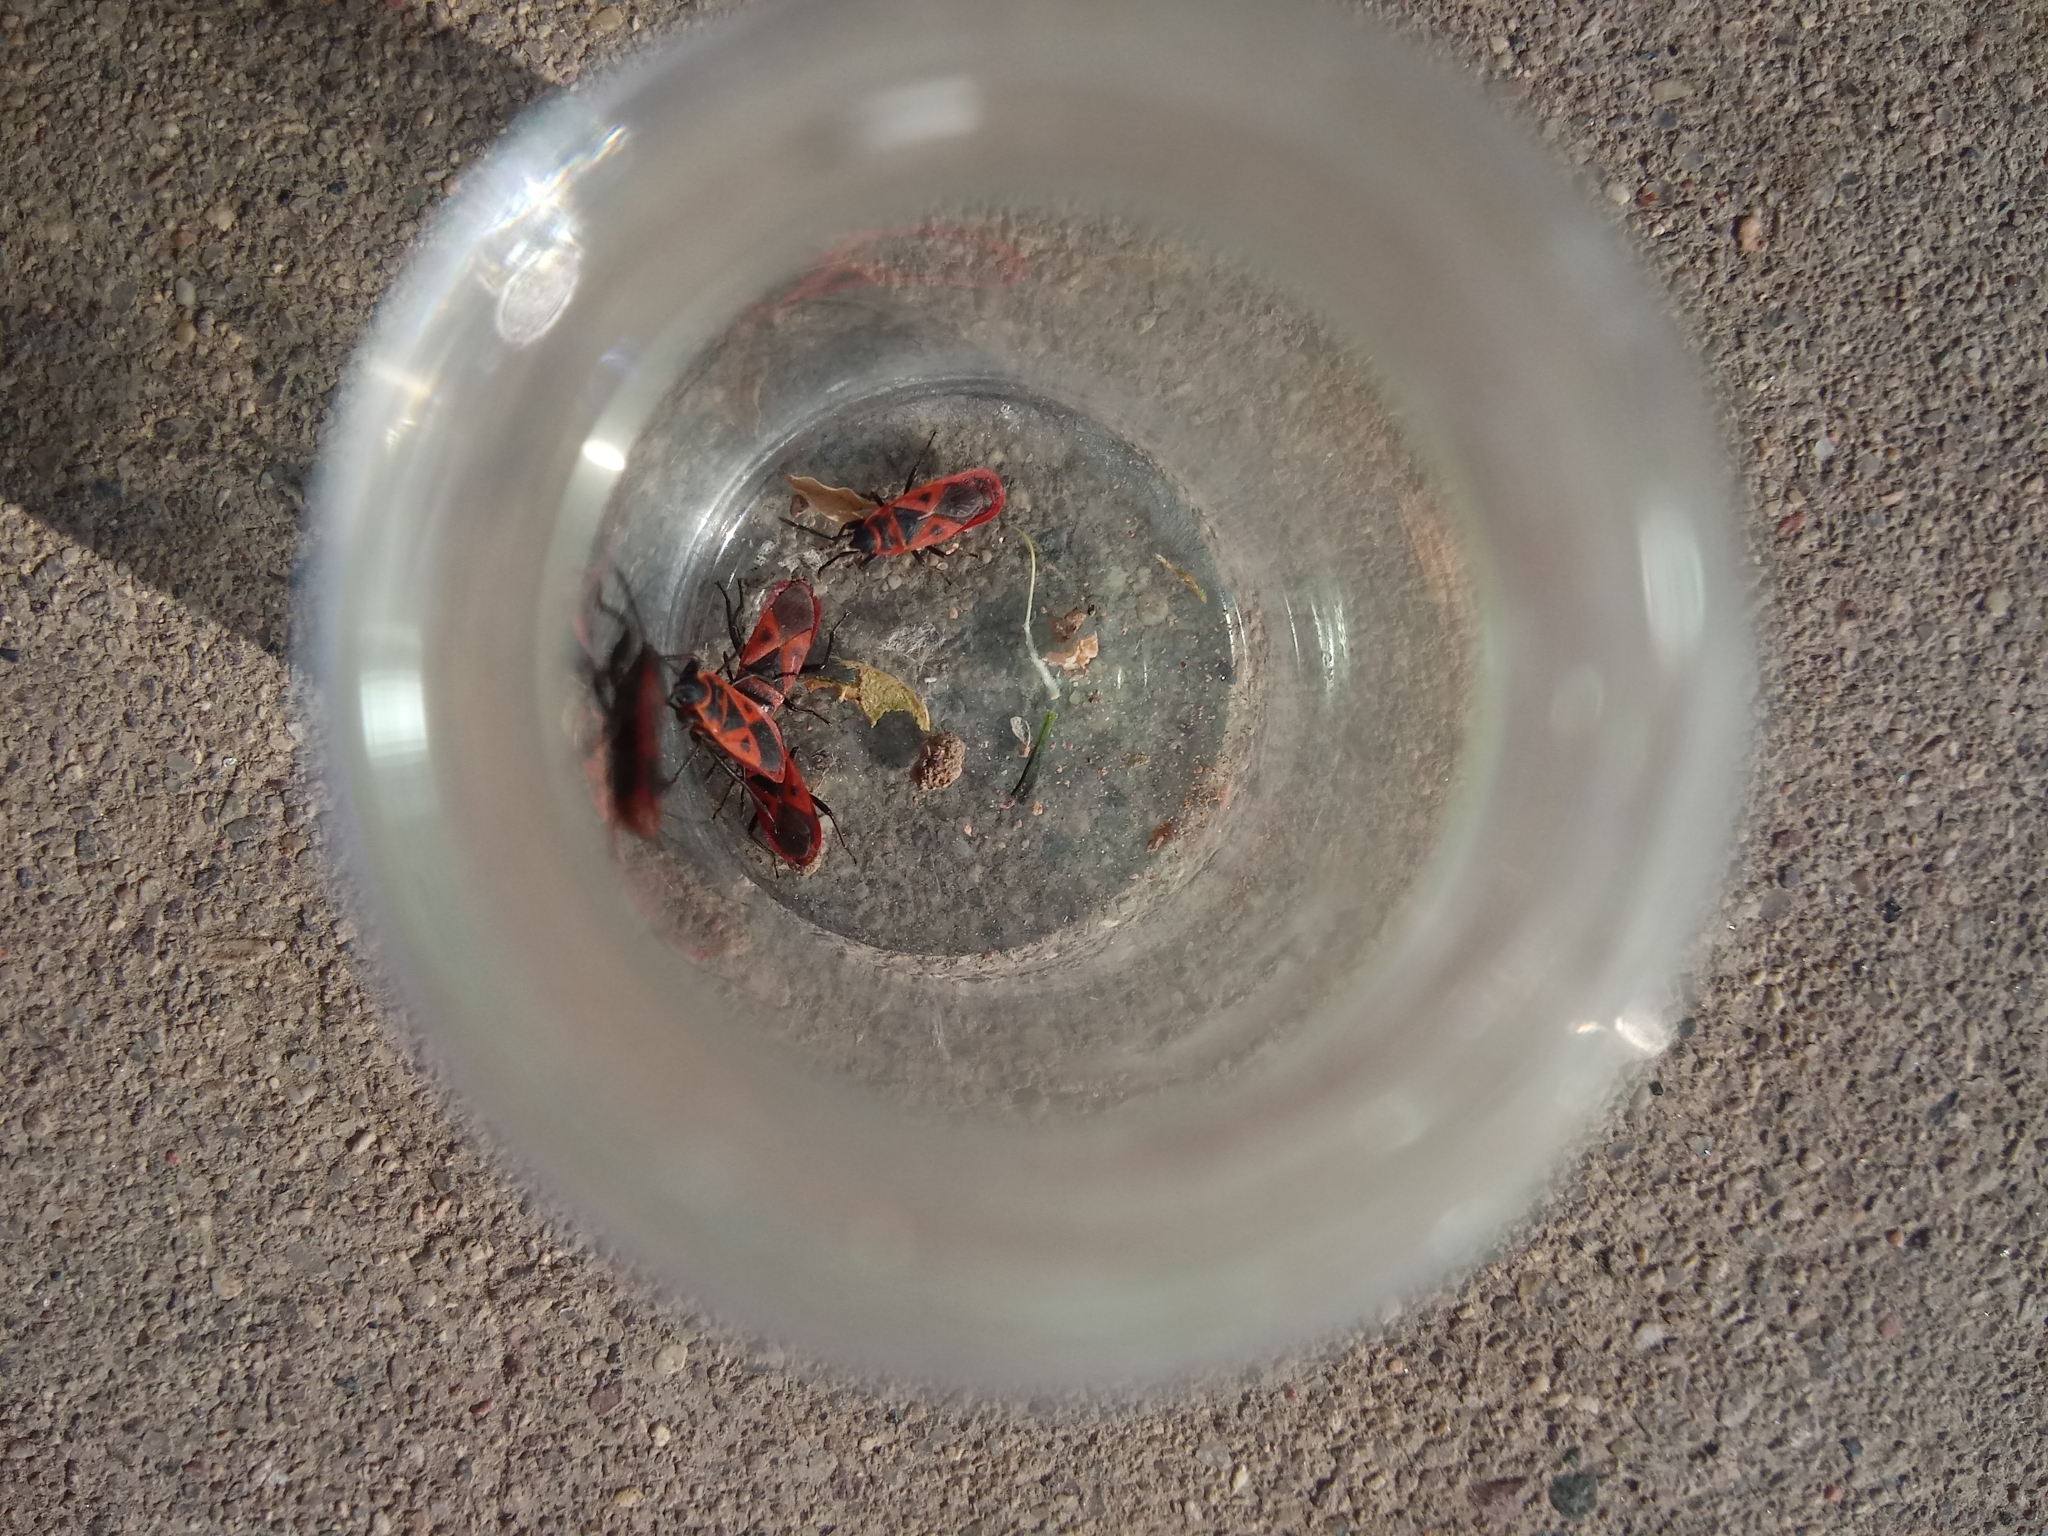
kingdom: Animalia
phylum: Arthropoda
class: Insecta
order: Hemiptera
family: Pyrrhocoridae
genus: Scantius
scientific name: Scantius aegyptius
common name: Red bug
